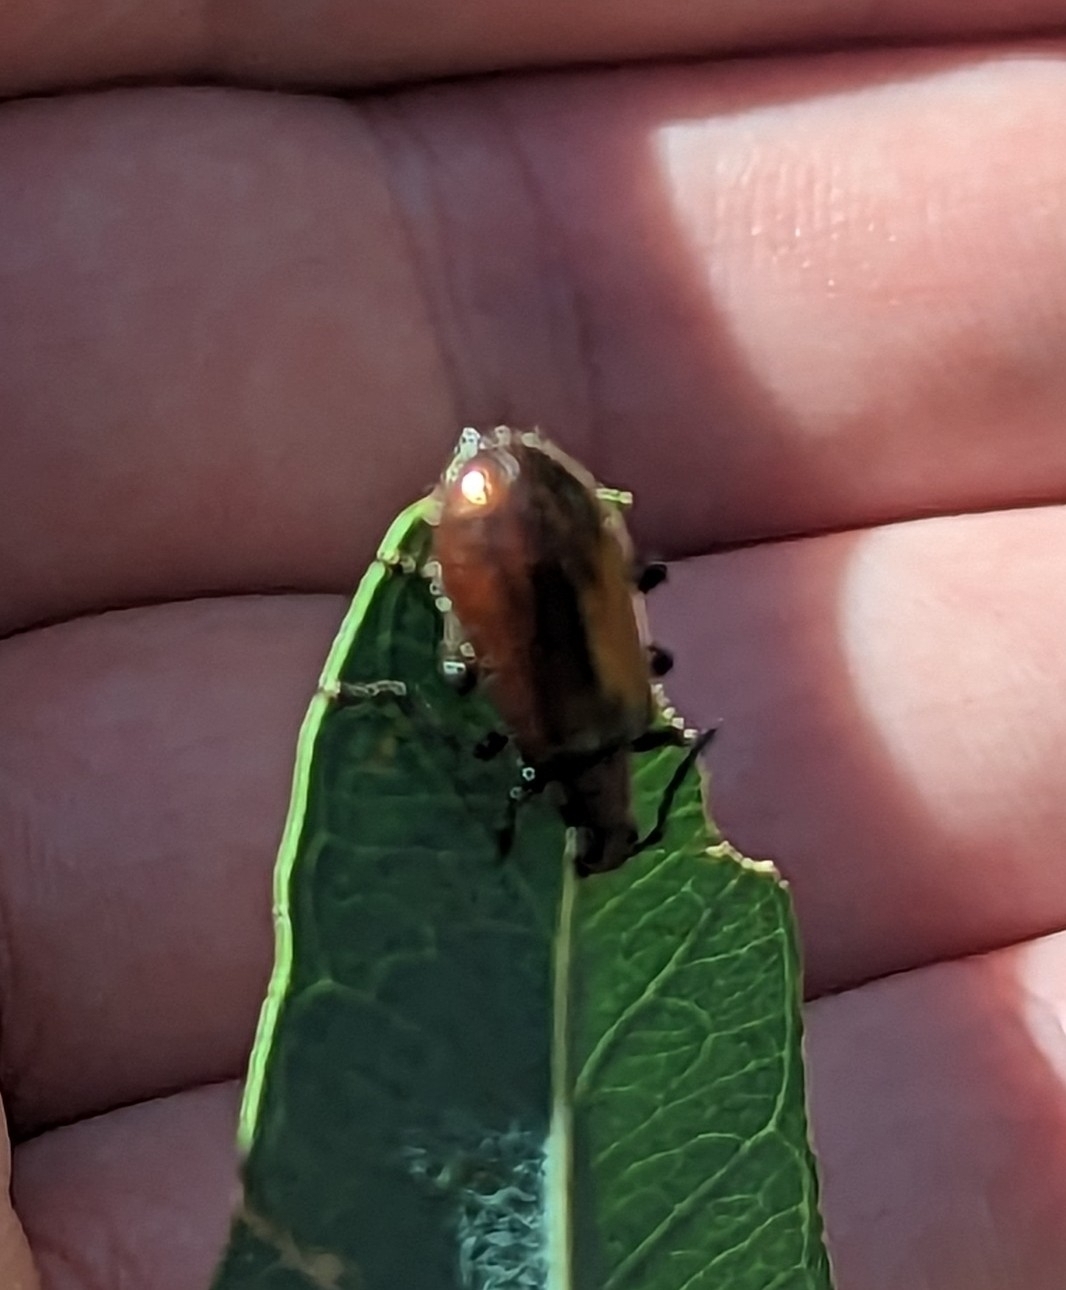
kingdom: Animalia
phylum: Arthropoda
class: Insecta
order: Coleoptera
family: Tenebrionidae
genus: Ecnolagria
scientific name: Ecnolagria
